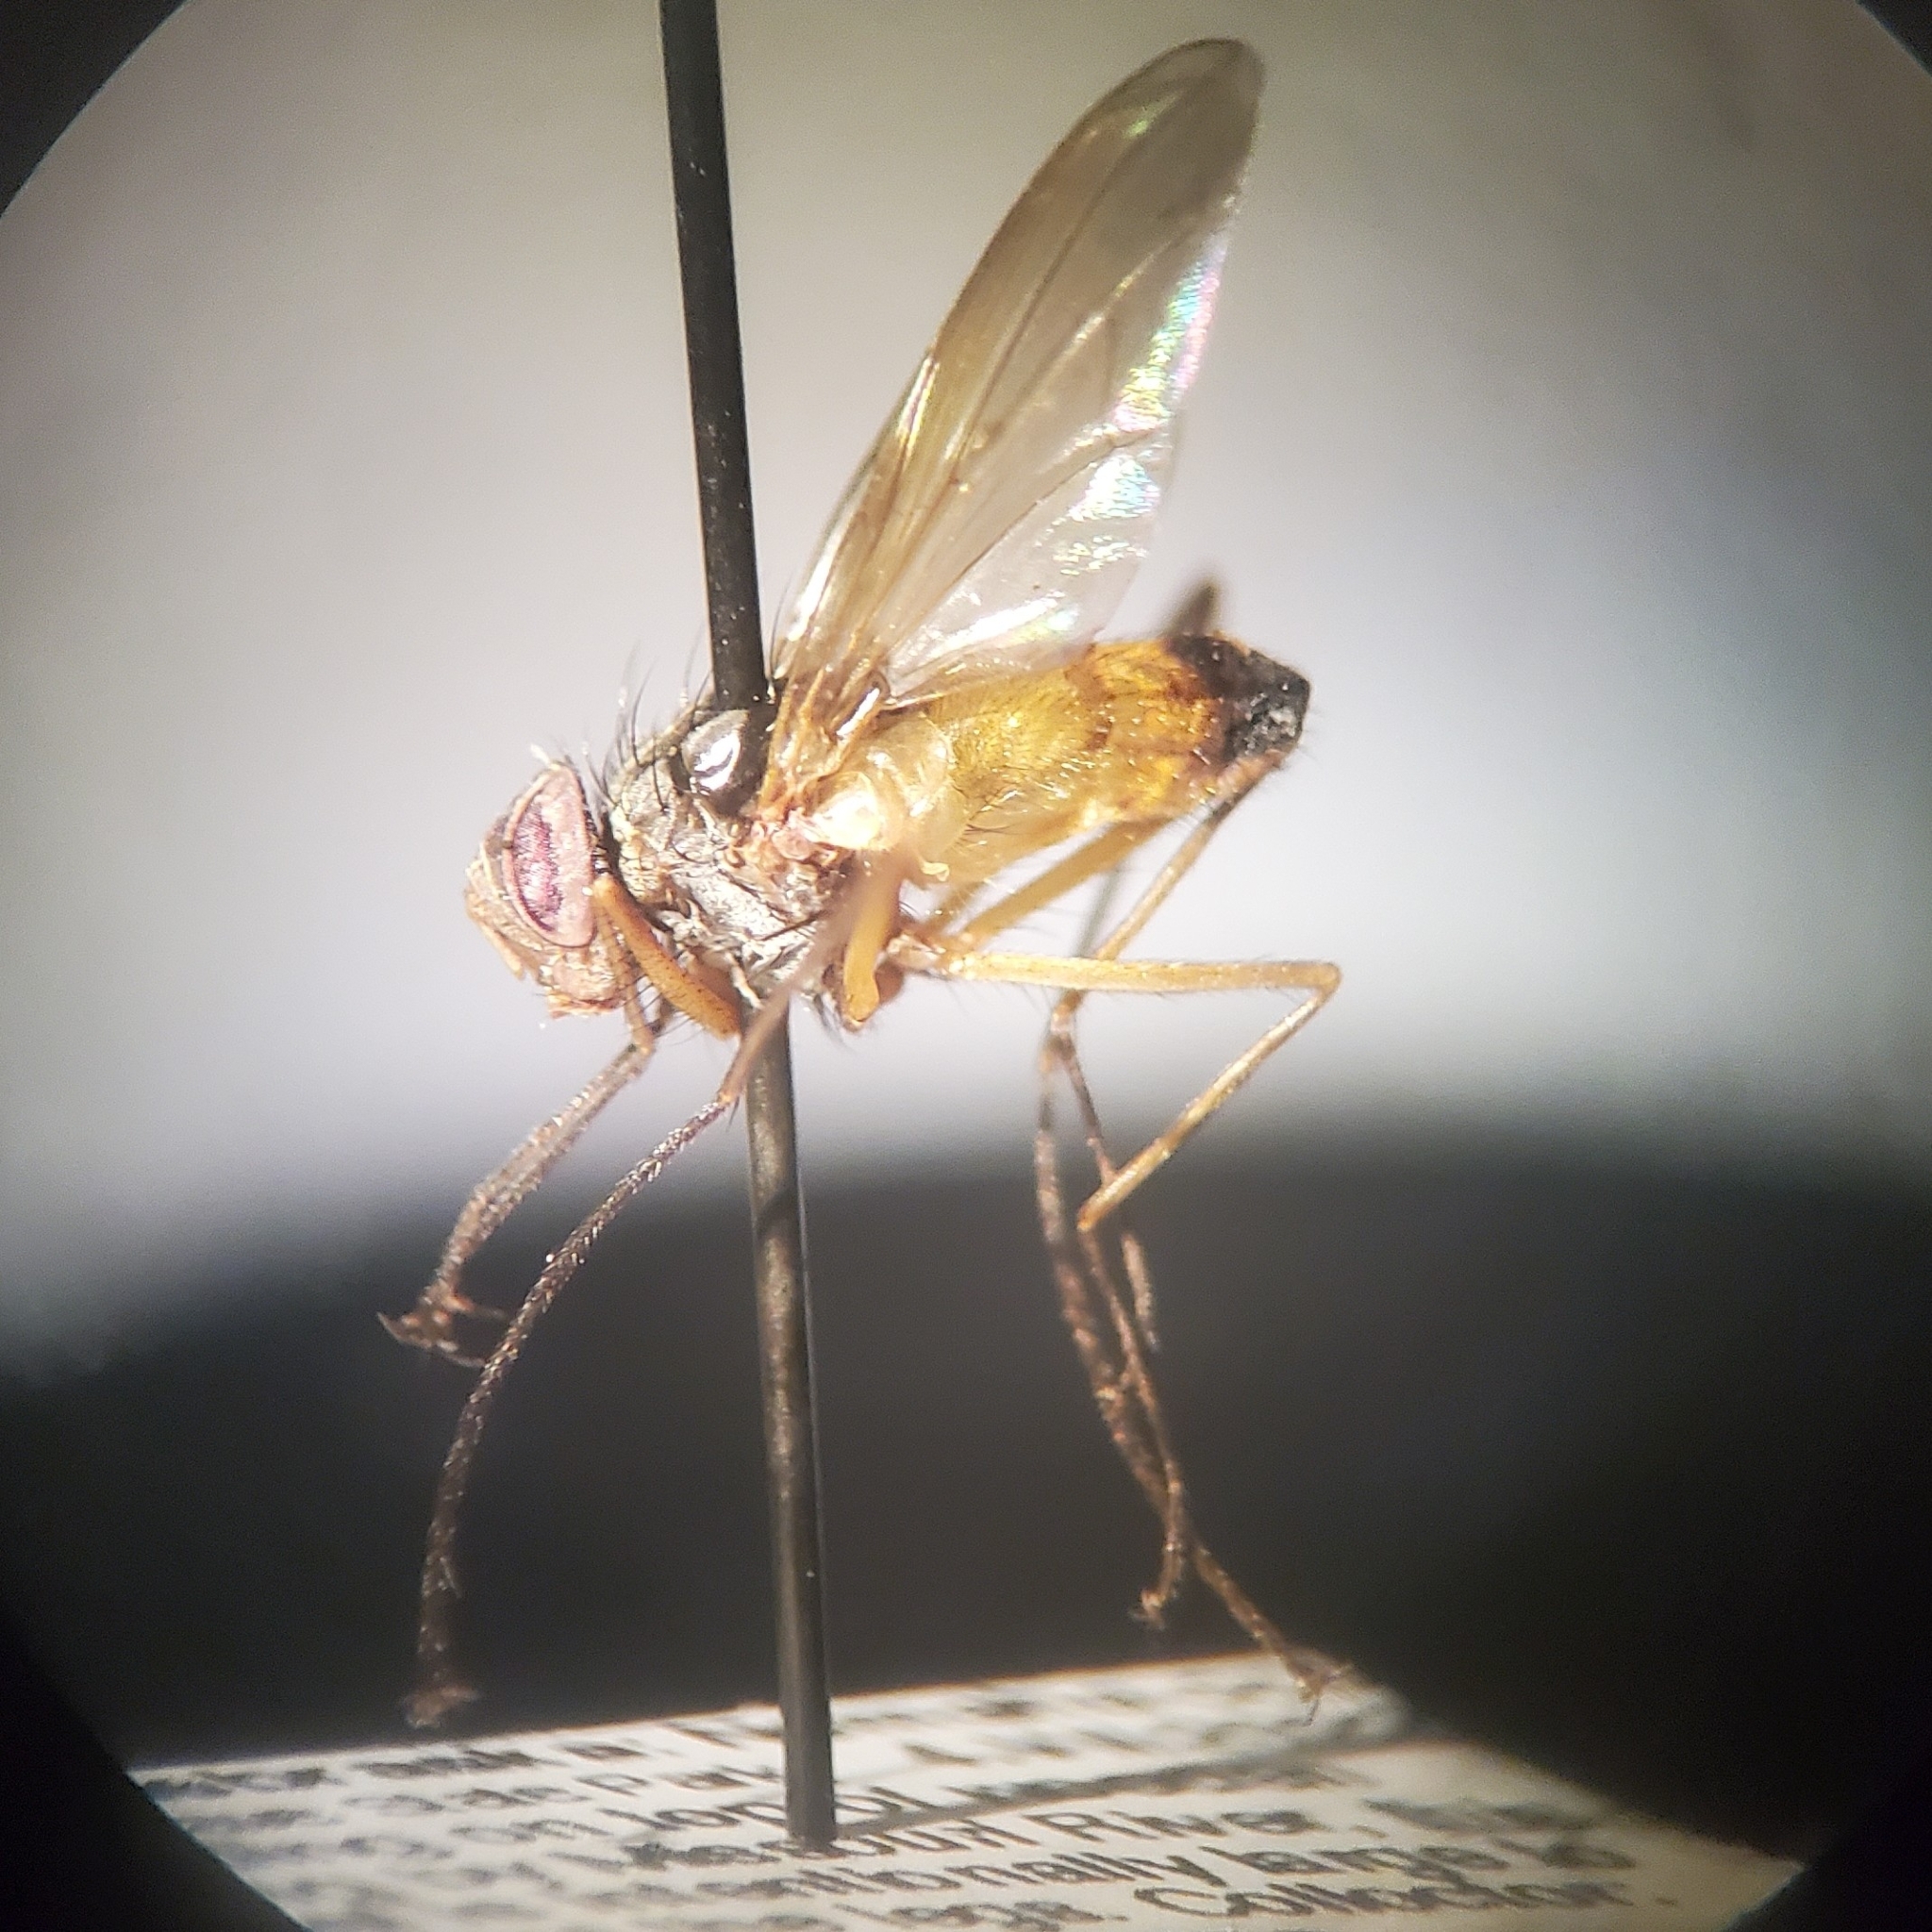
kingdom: Animalia
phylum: Arthropoda
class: Insecta
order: Diptera
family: Tachinidae
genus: Cholomyia
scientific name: Cholomyia inaequipes
